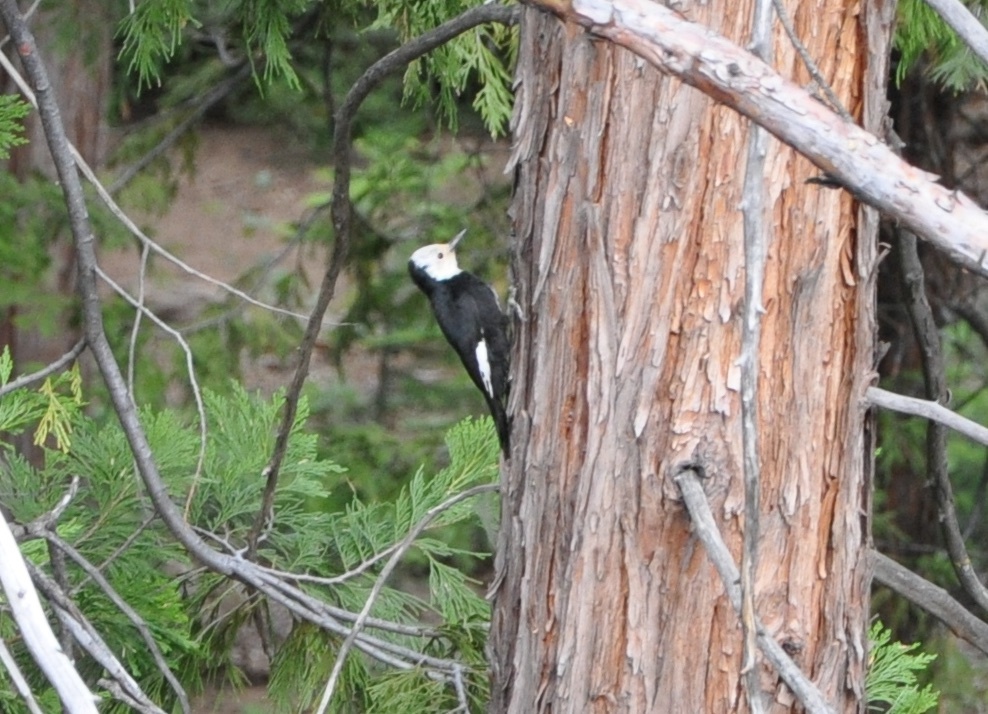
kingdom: Animalia
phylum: Chordata
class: Aves
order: Piciformes
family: Picidae
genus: Leuconotopicus
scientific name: Leuconotopicus albolarvatus
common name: White-headed woodpecker
